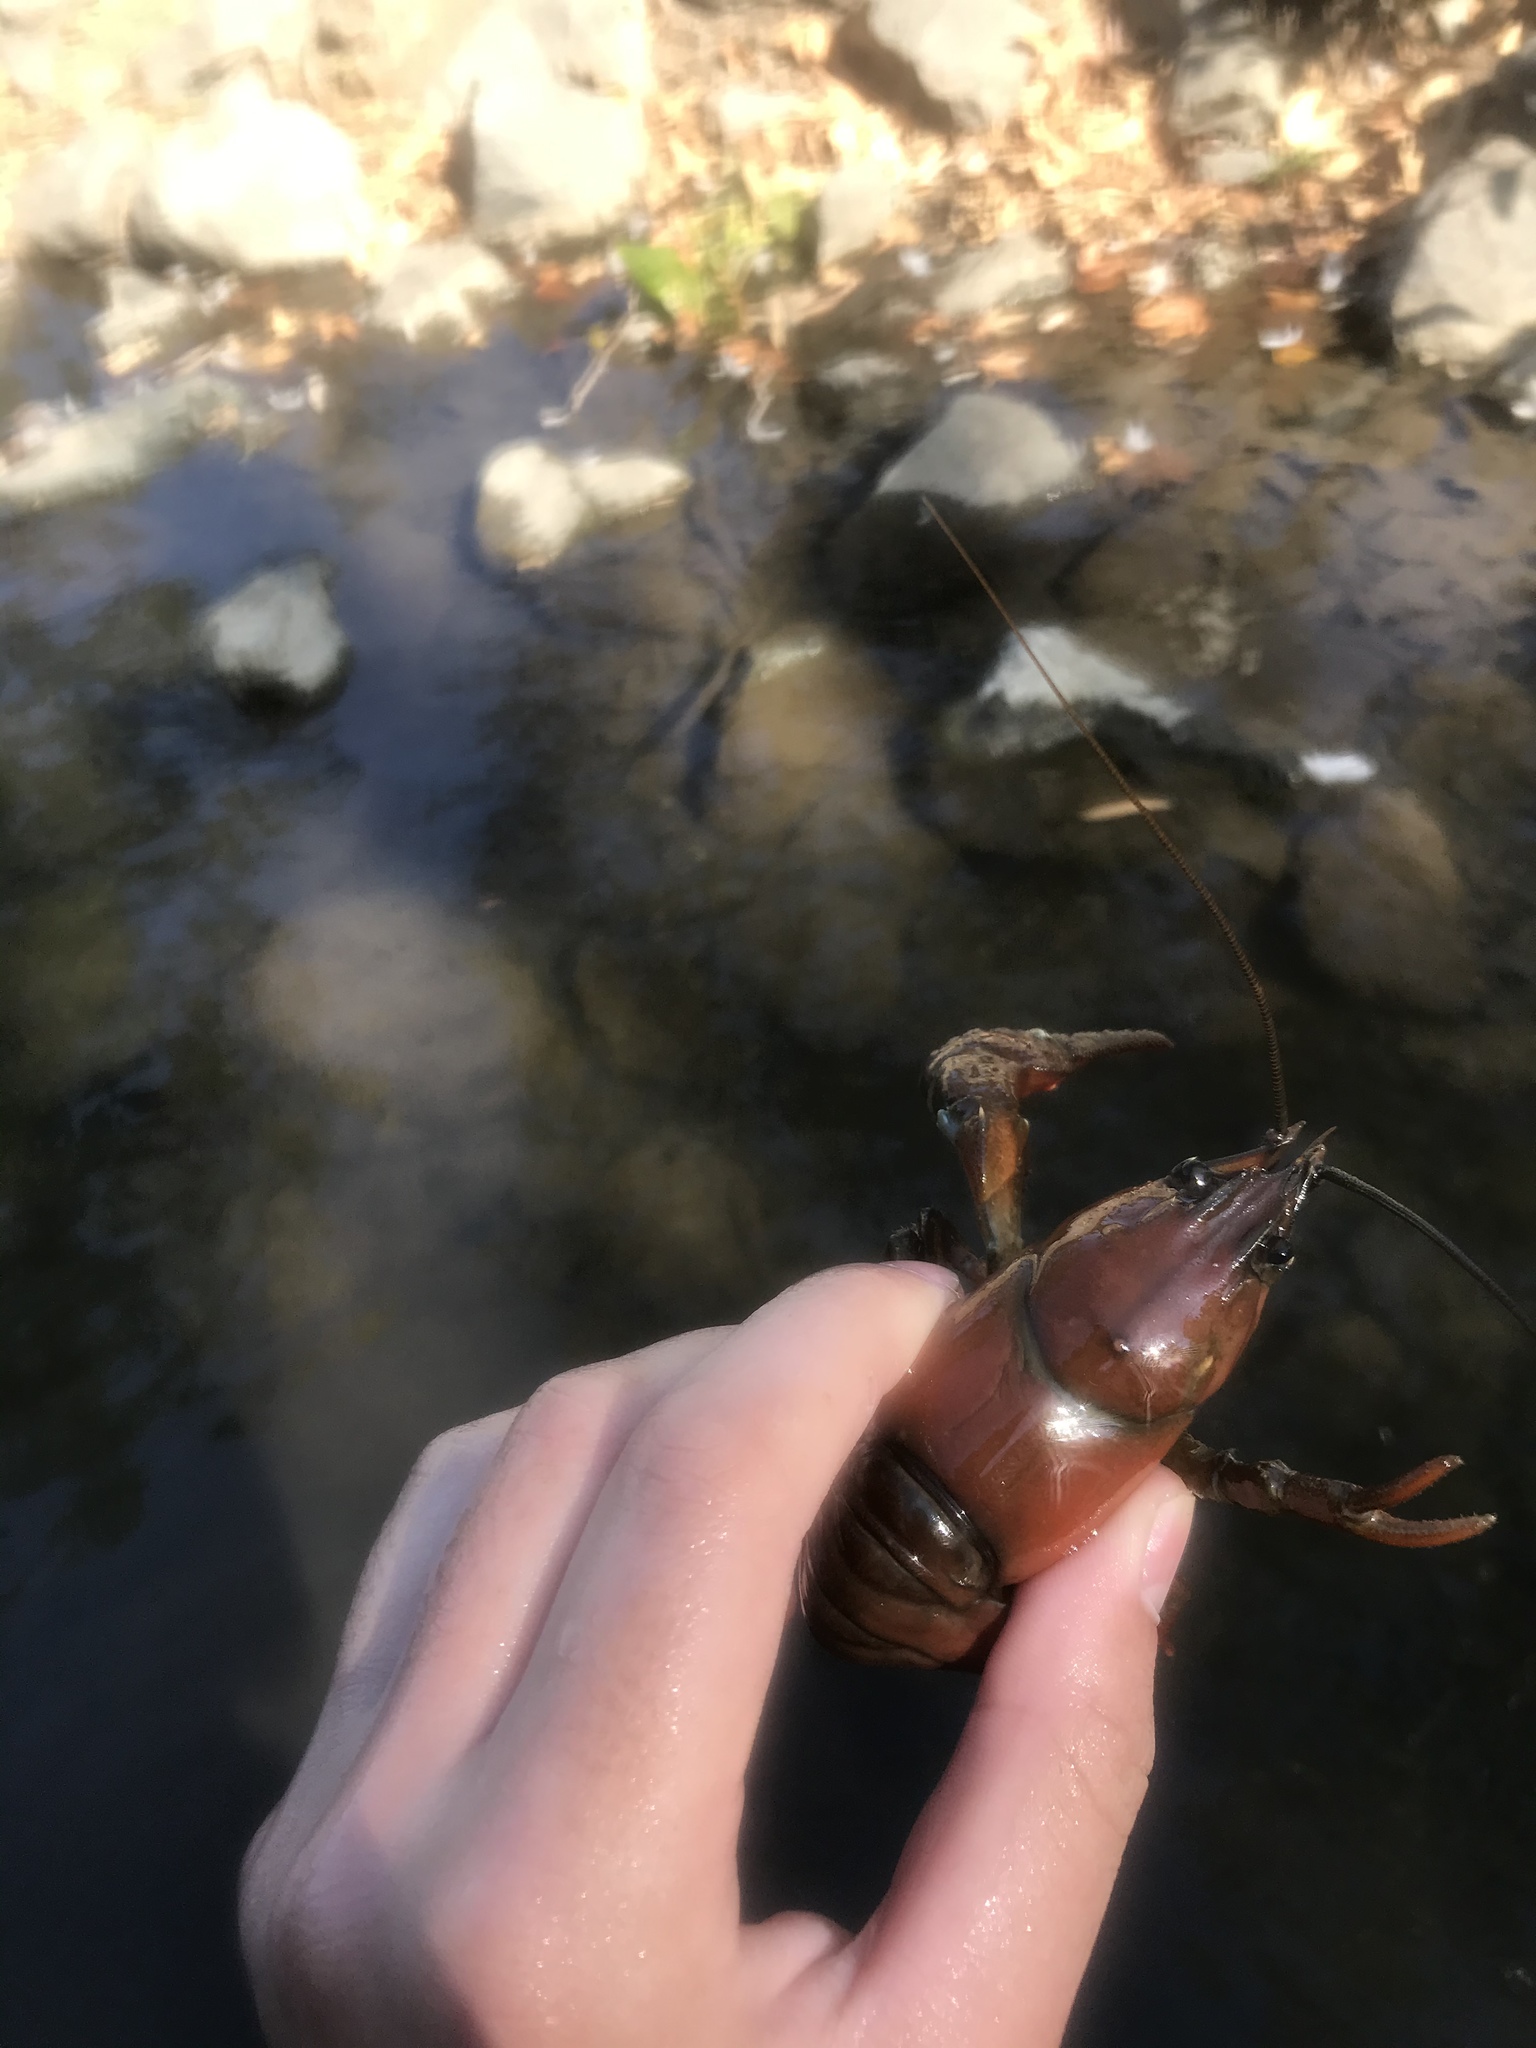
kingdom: Animalia
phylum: Arthropoda
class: Malacostraca
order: Decapoda
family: Astacidae
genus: Pacifastacus
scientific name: Pacifastacus leniusculus
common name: Signal crayfish
